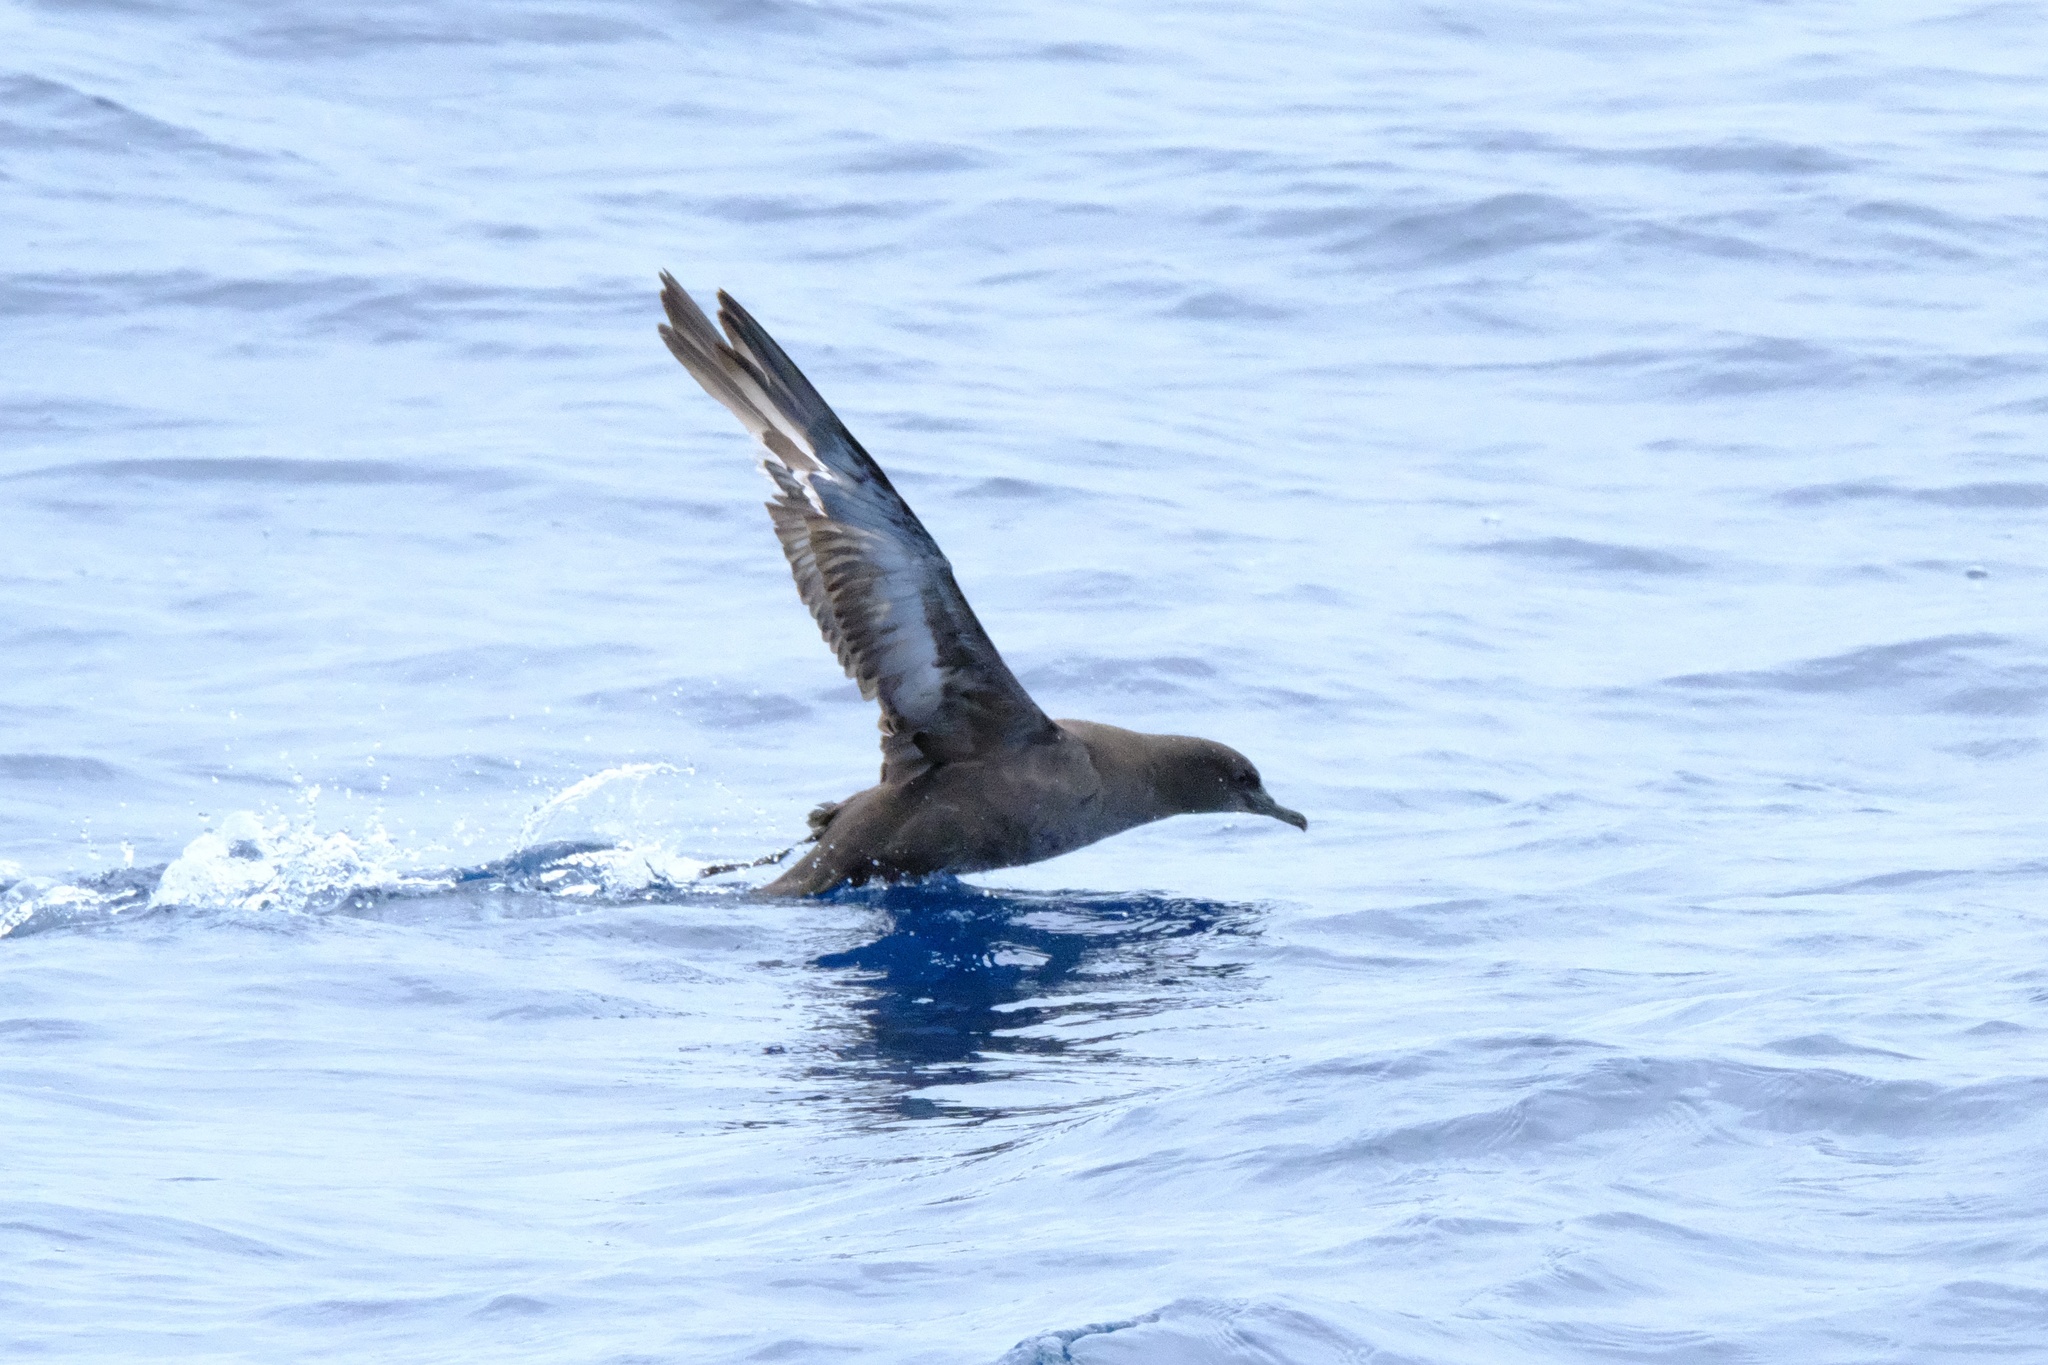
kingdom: Animalia
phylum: Chordata
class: Aves
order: Procellariiformes
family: Procellariidae
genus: Puffinus
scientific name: Puffinus griseus
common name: Sooty shearwater
